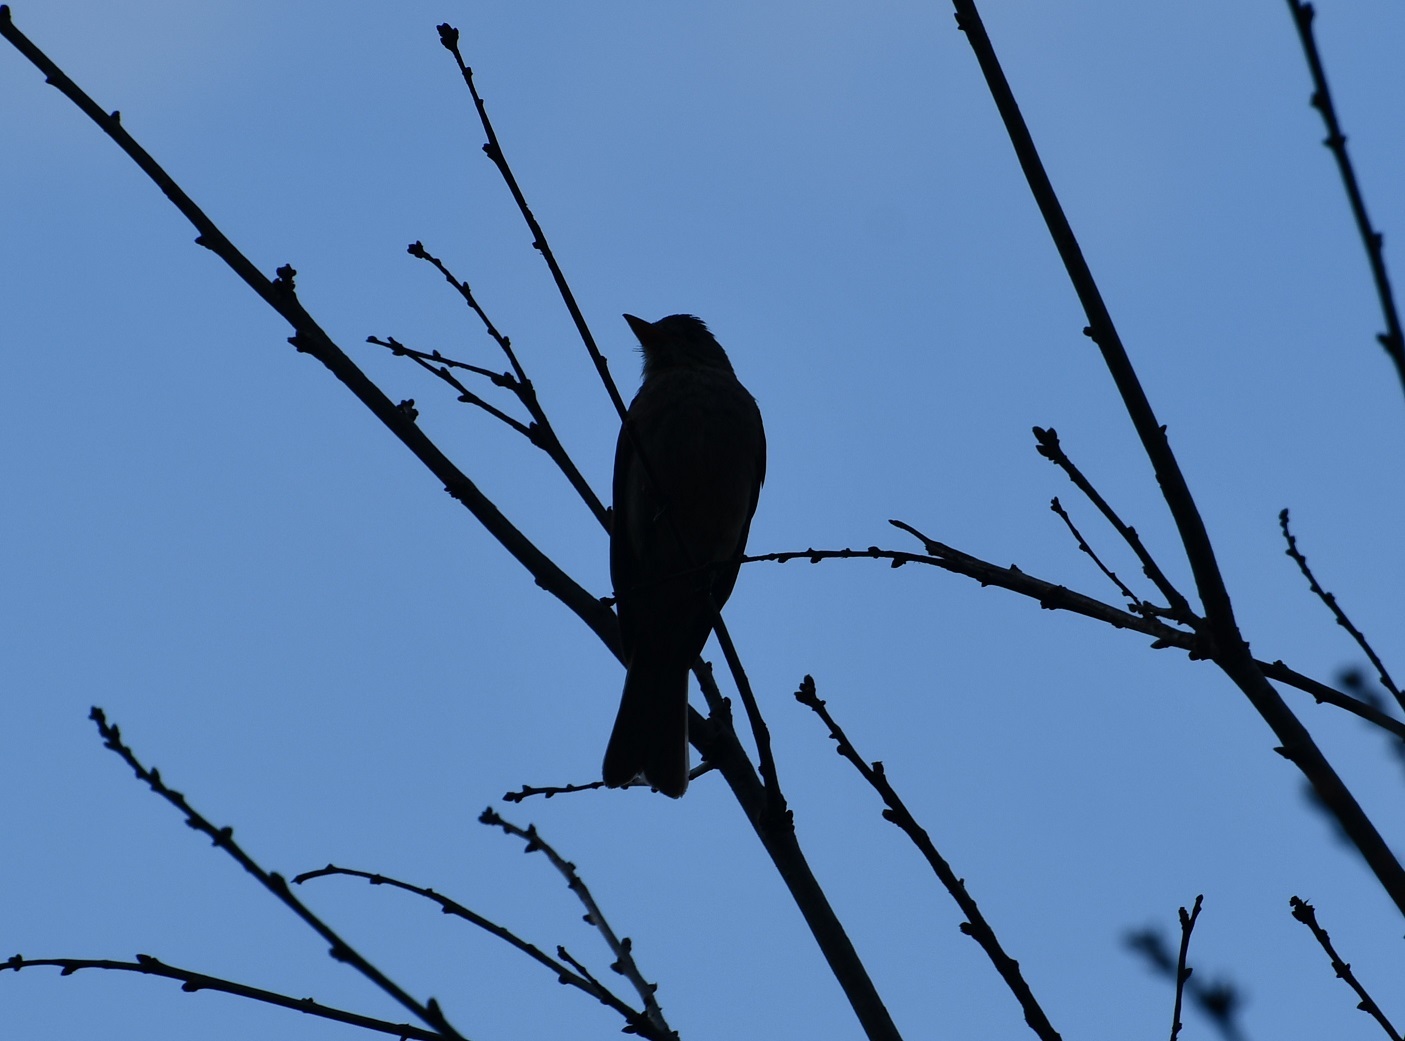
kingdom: Animalia
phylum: Chordata
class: Aves
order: Passeriformes
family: Tyrannidae
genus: Contopus
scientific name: Contopus pertinax
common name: Greater pewee
